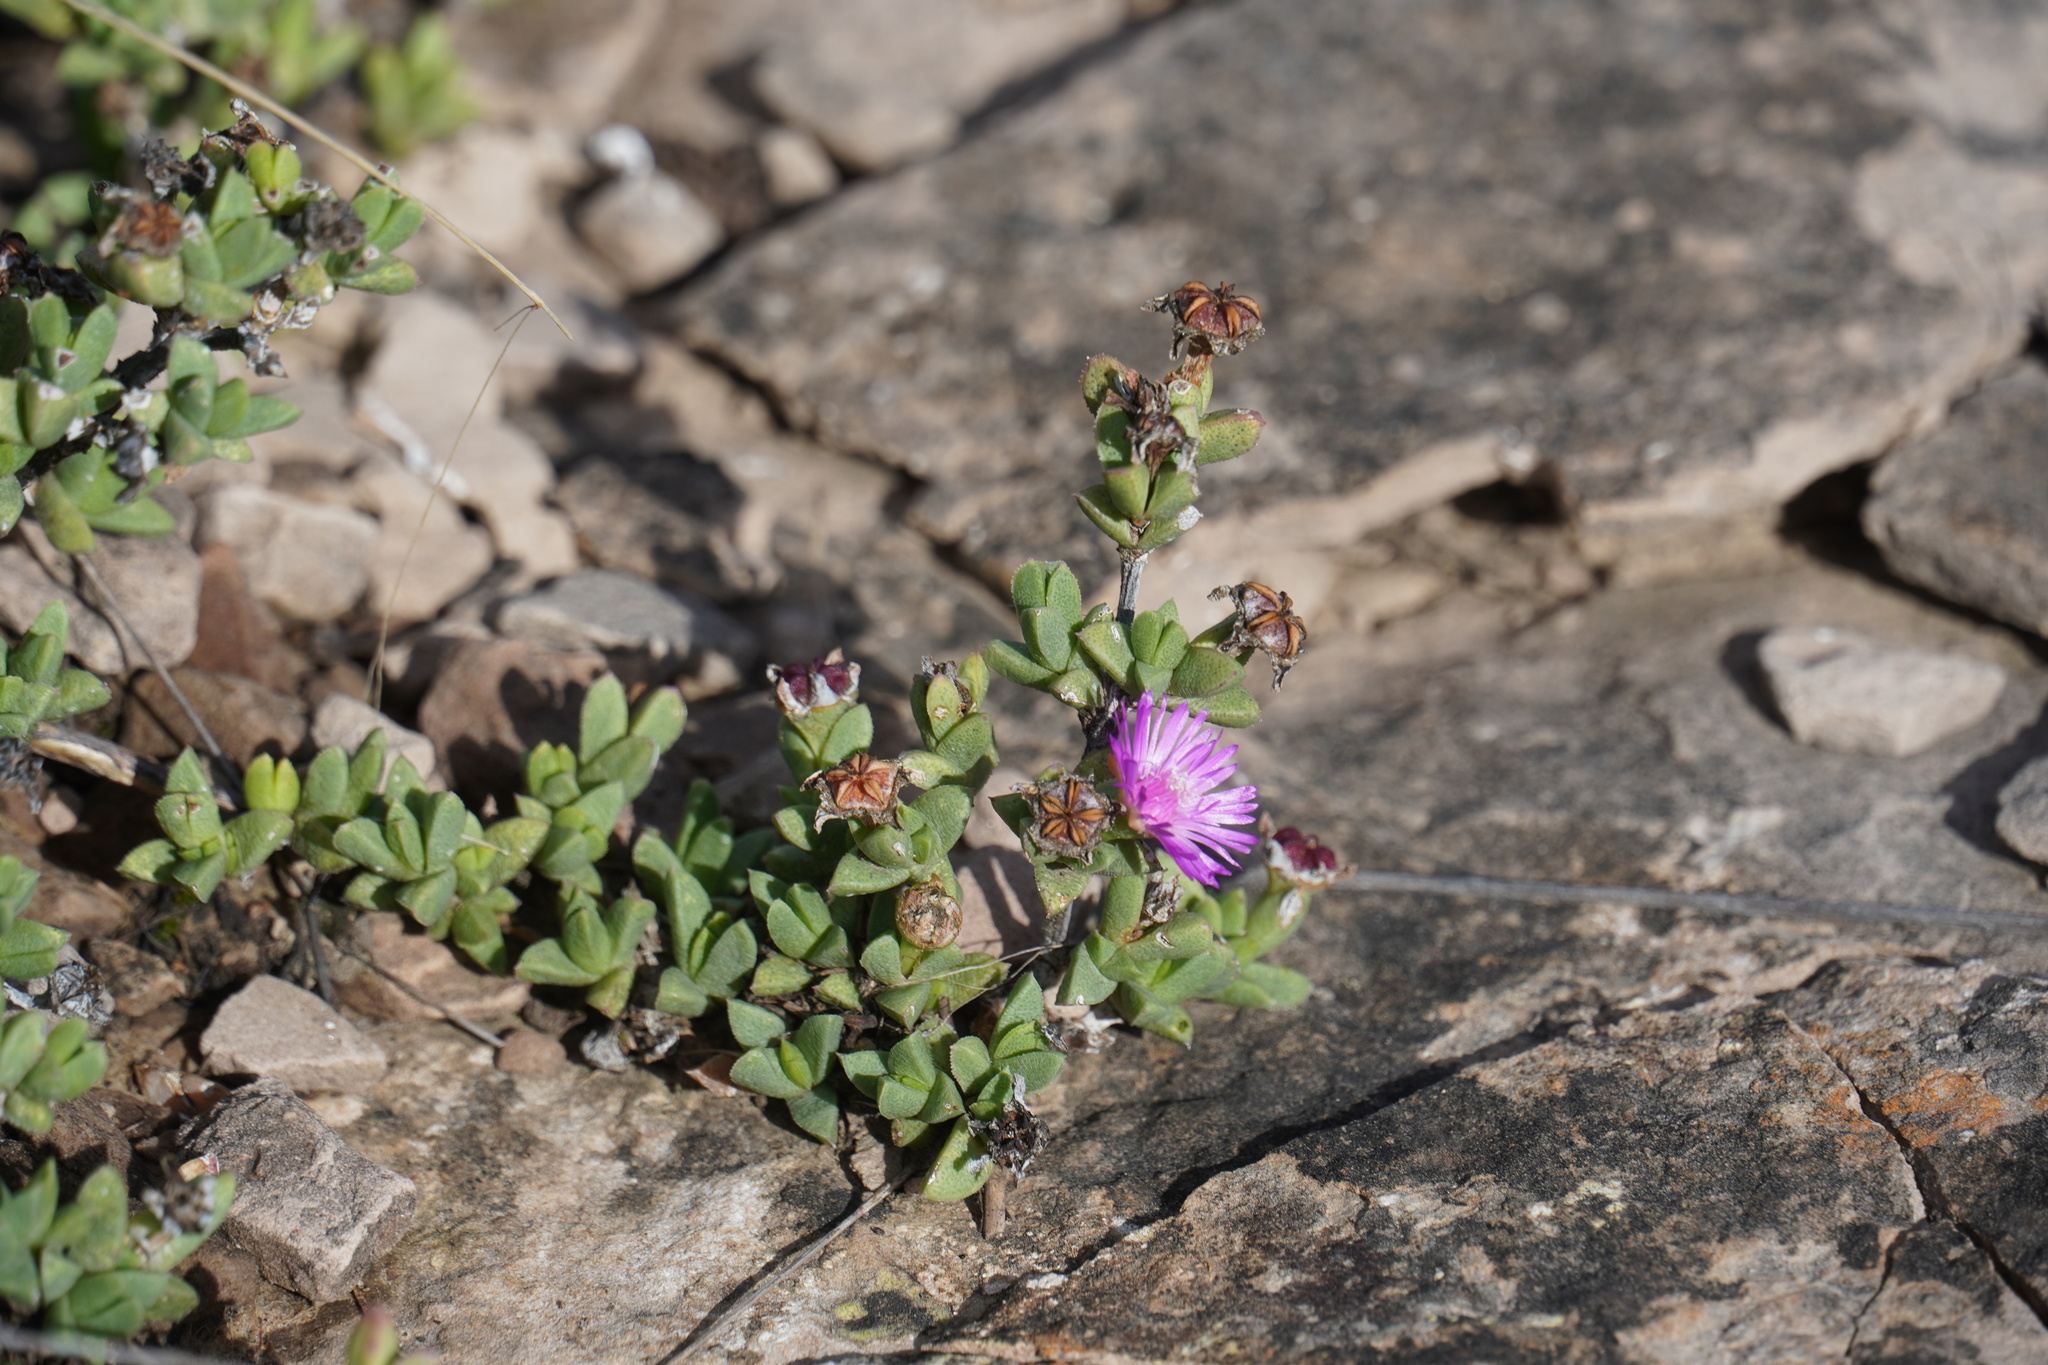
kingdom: Plantae
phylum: Tracheophyta
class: Magnoliopsida
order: Caryophyllales
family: Aizoaceae
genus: Ruschia
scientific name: Ruschia putterillii
